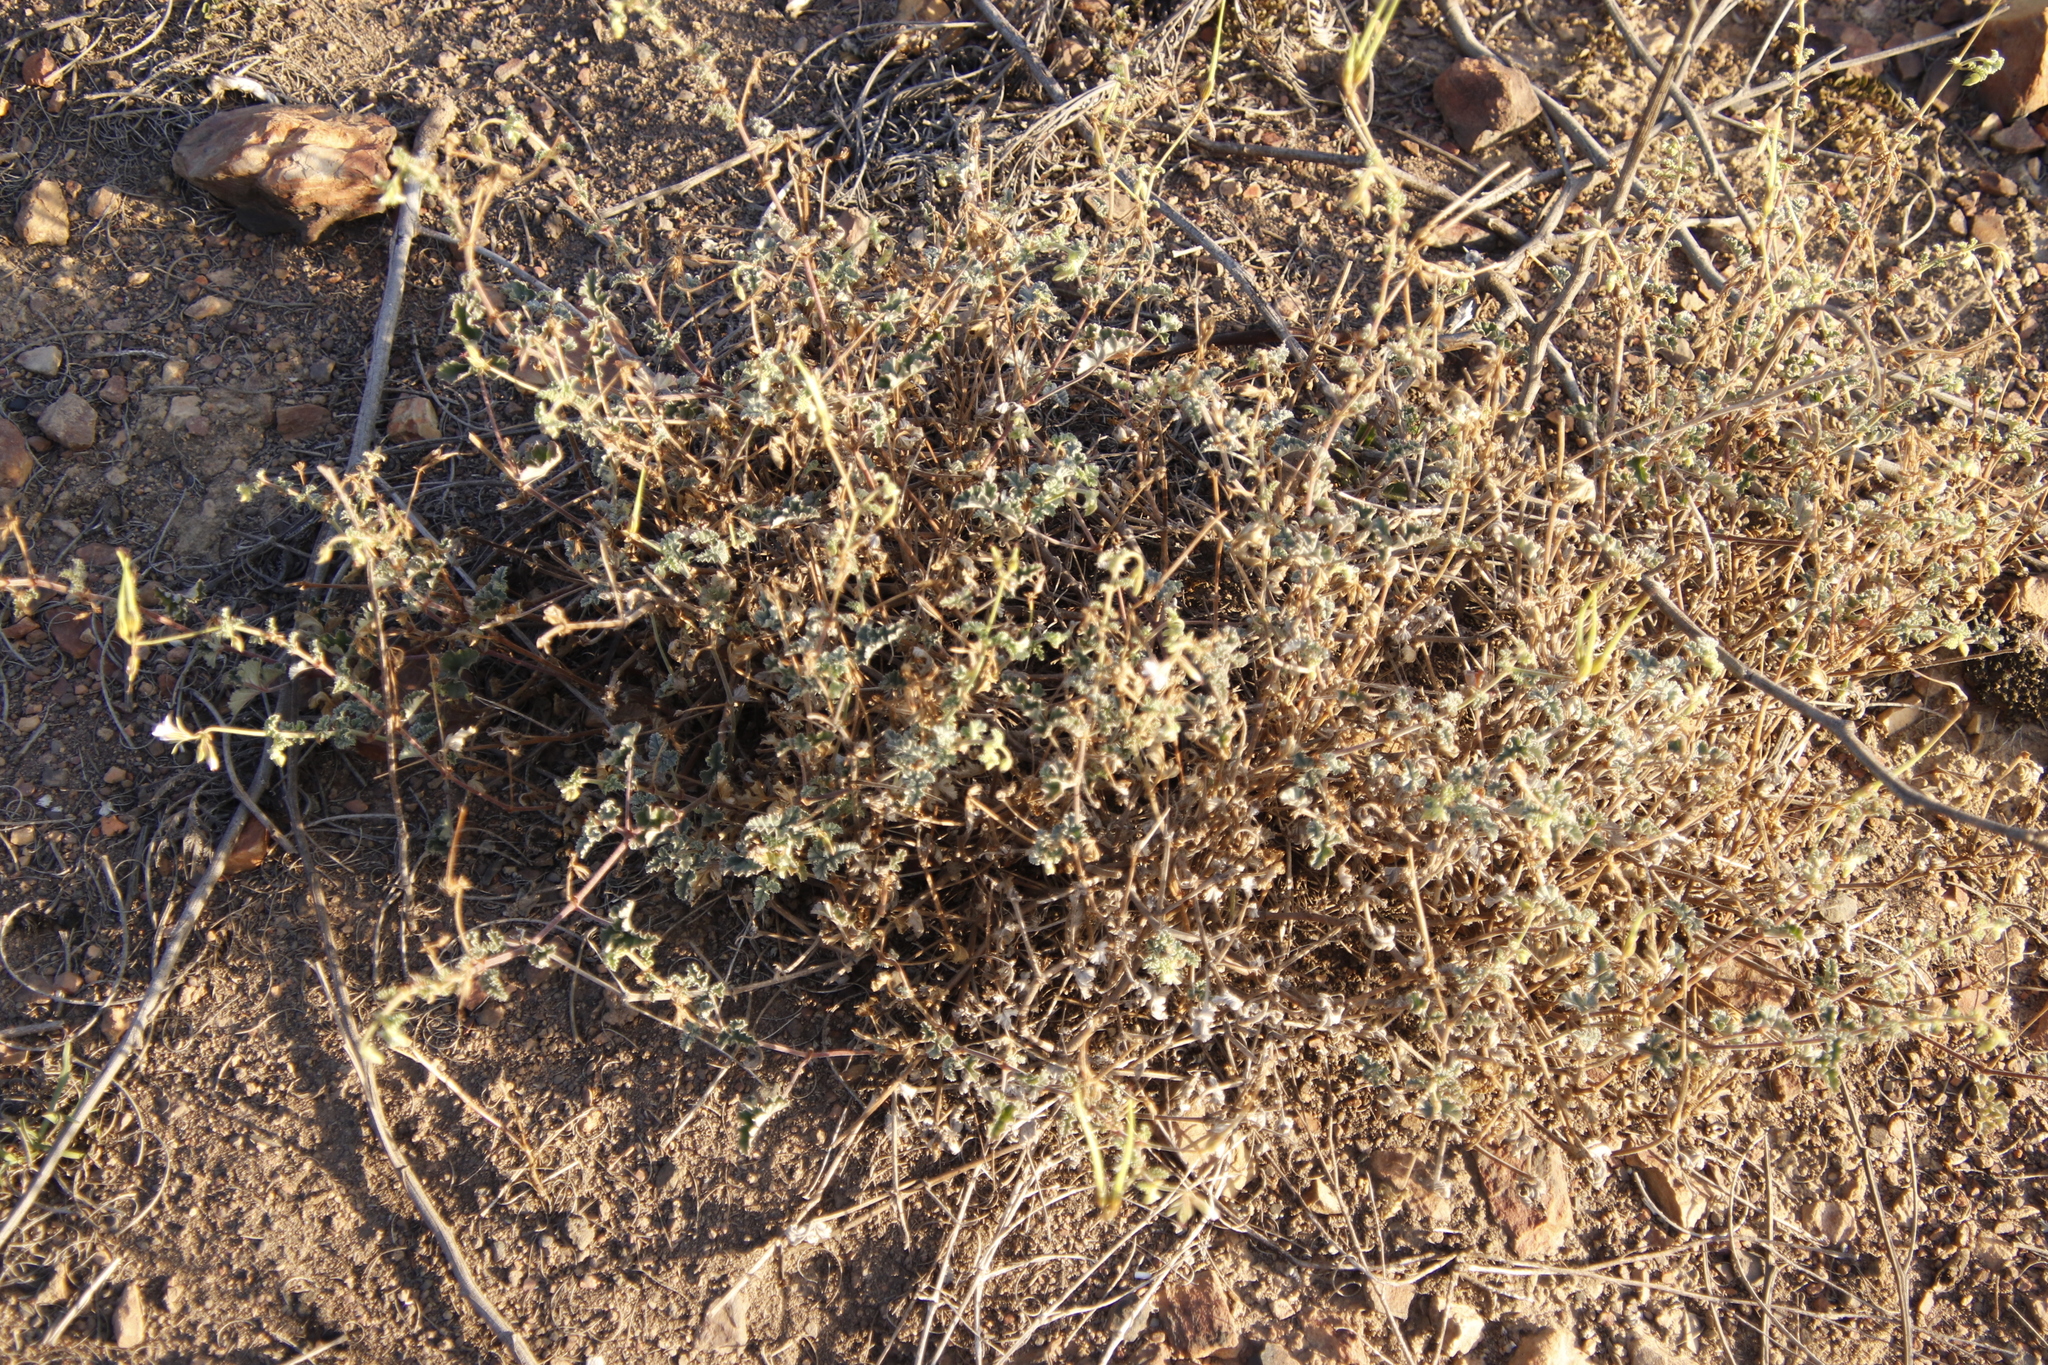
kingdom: Plantae
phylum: Tracheophyta
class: Magnoliopsida
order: Geraniales
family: Geraniaceae
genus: Pelargonium
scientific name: Pelargonium candicans
